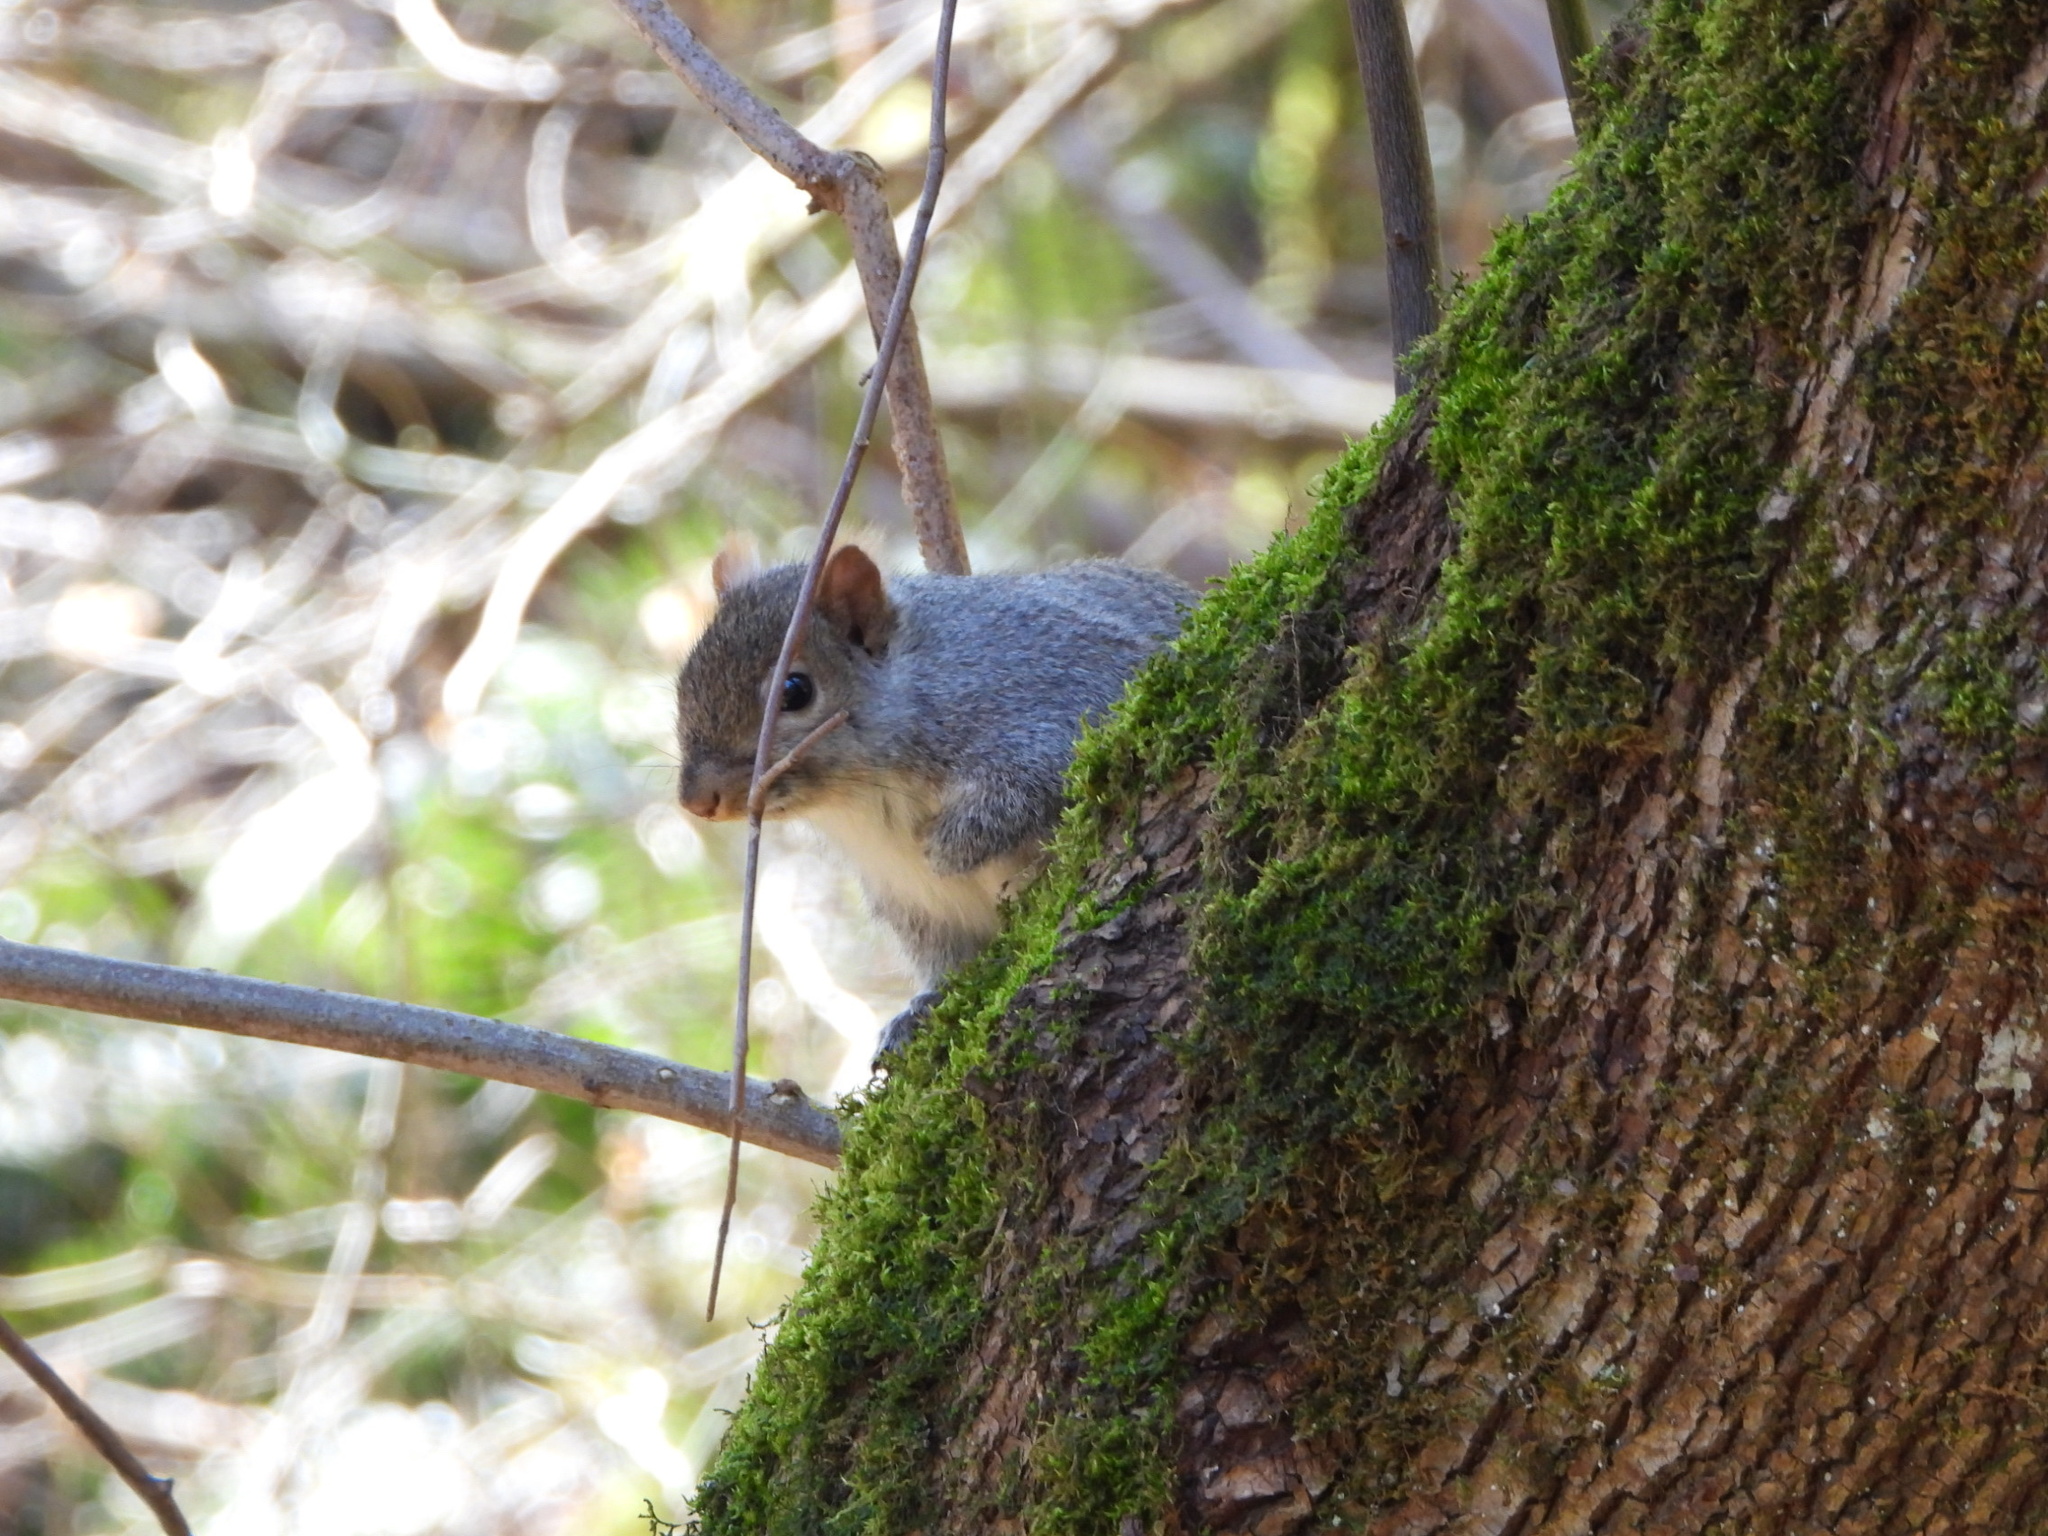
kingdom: Animalia
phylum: Chordata
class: Mammalia
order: Rodentia
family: Sciuridae
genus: Sciurus
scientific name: Sciurus carolinensis
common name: Eastern gray squirrel
